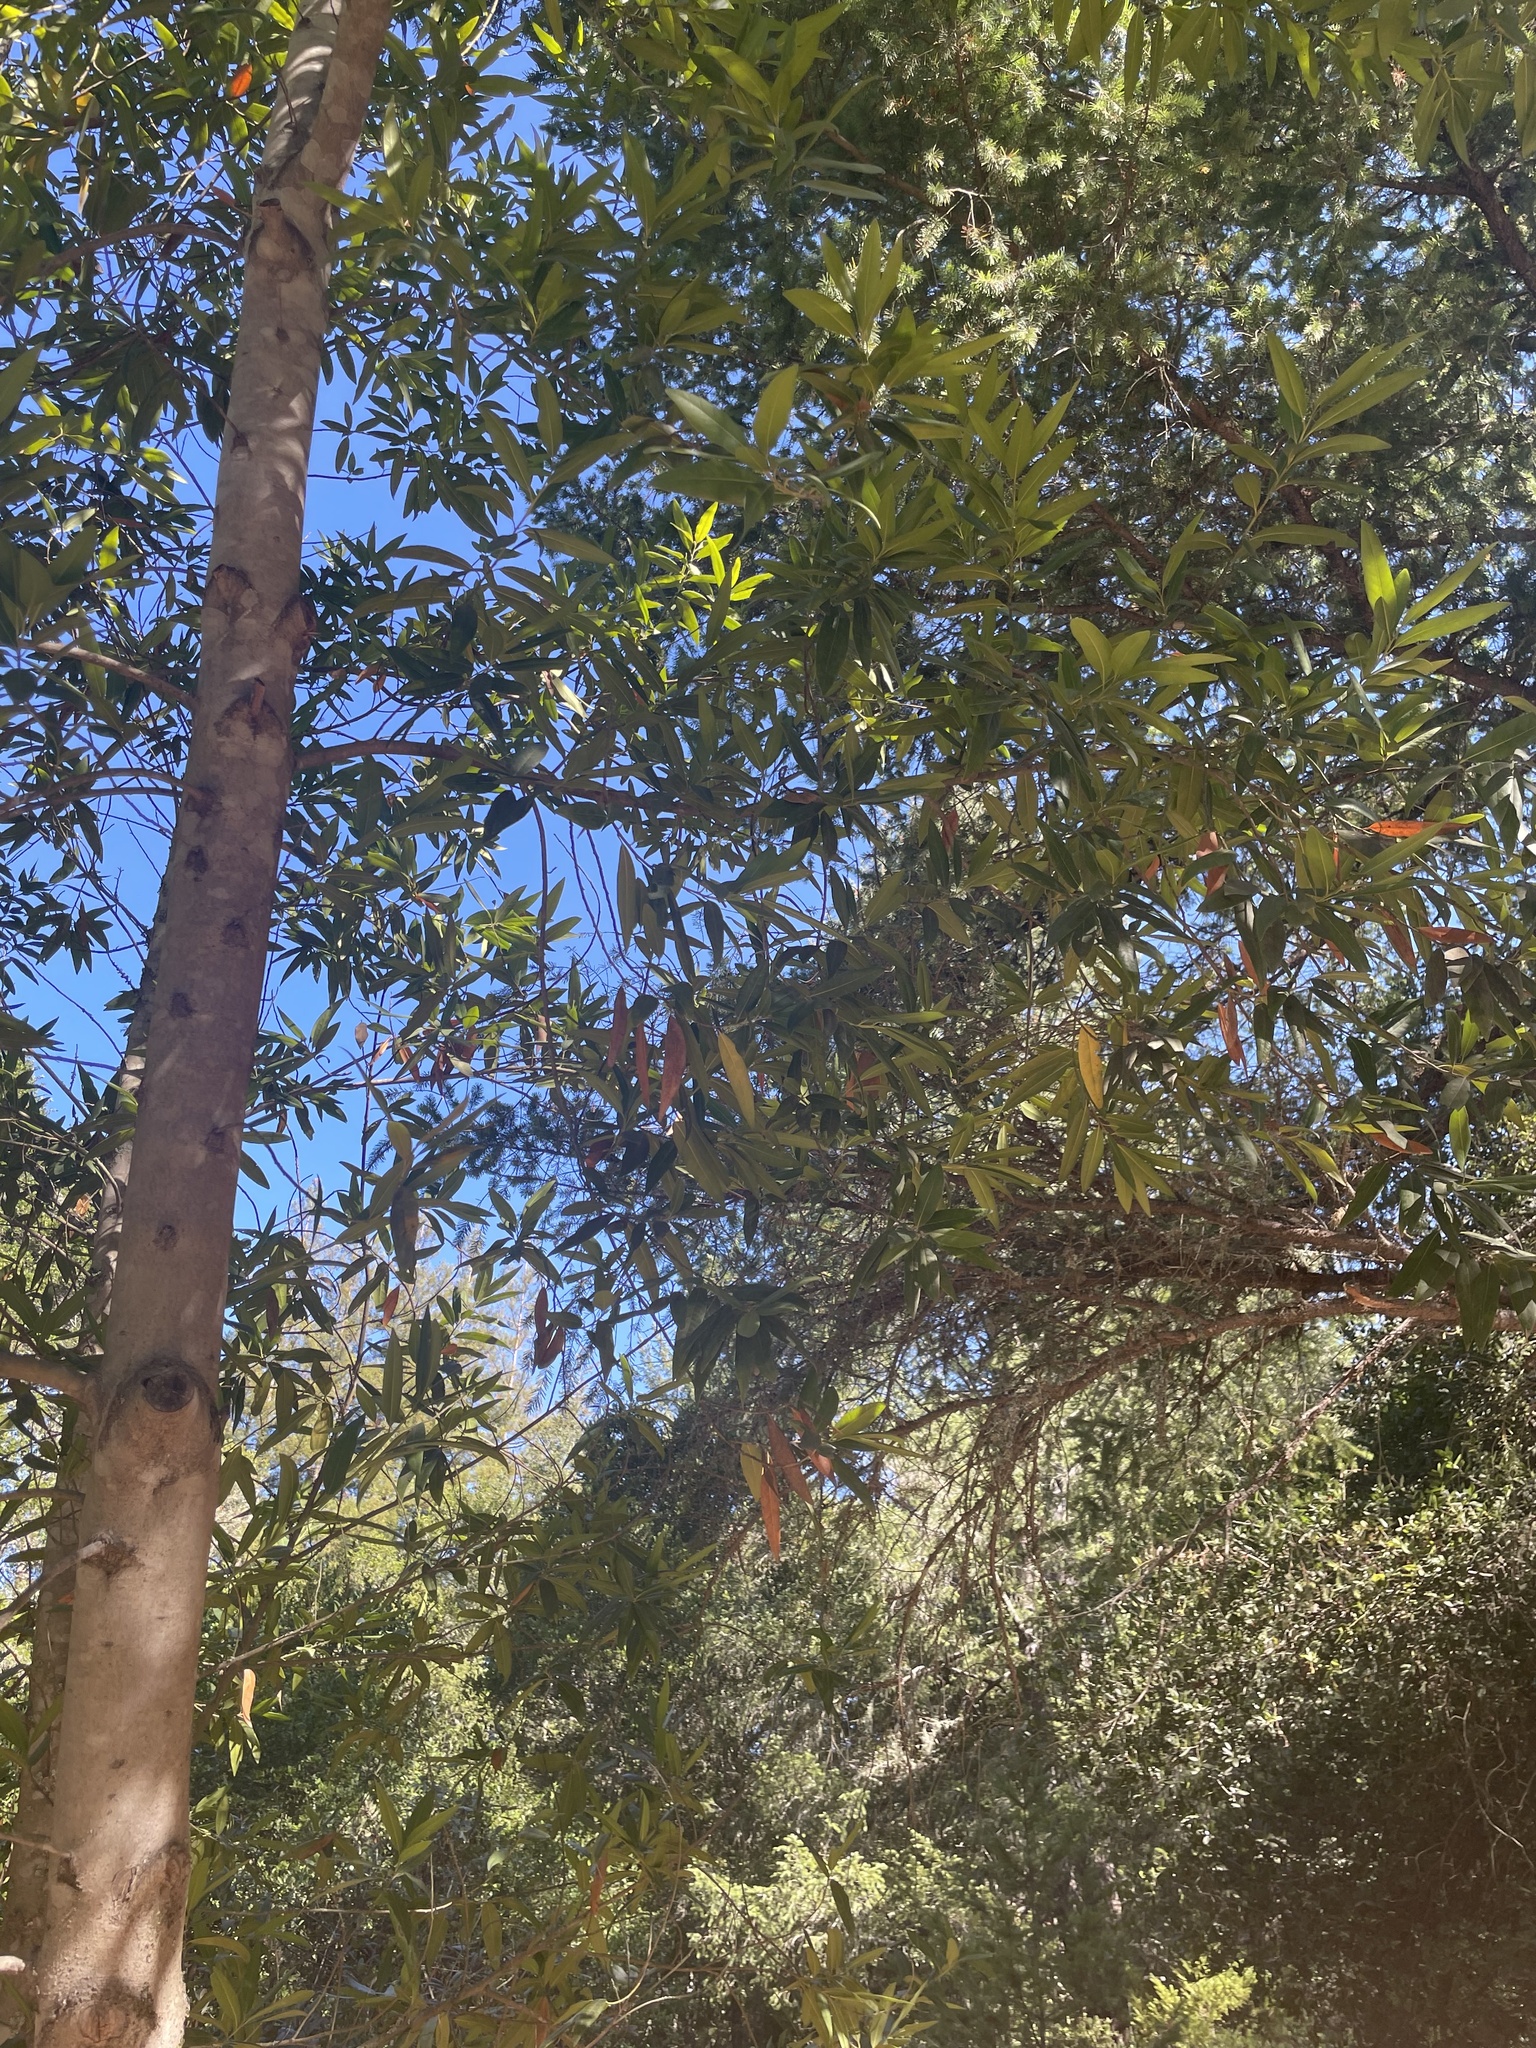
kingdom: Plantae
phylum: Tracheophyta
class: Magnoliopsida
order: Laurales
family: Lauraceae
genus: Umbellularia
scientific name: Umbellularia californica
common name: California bay
